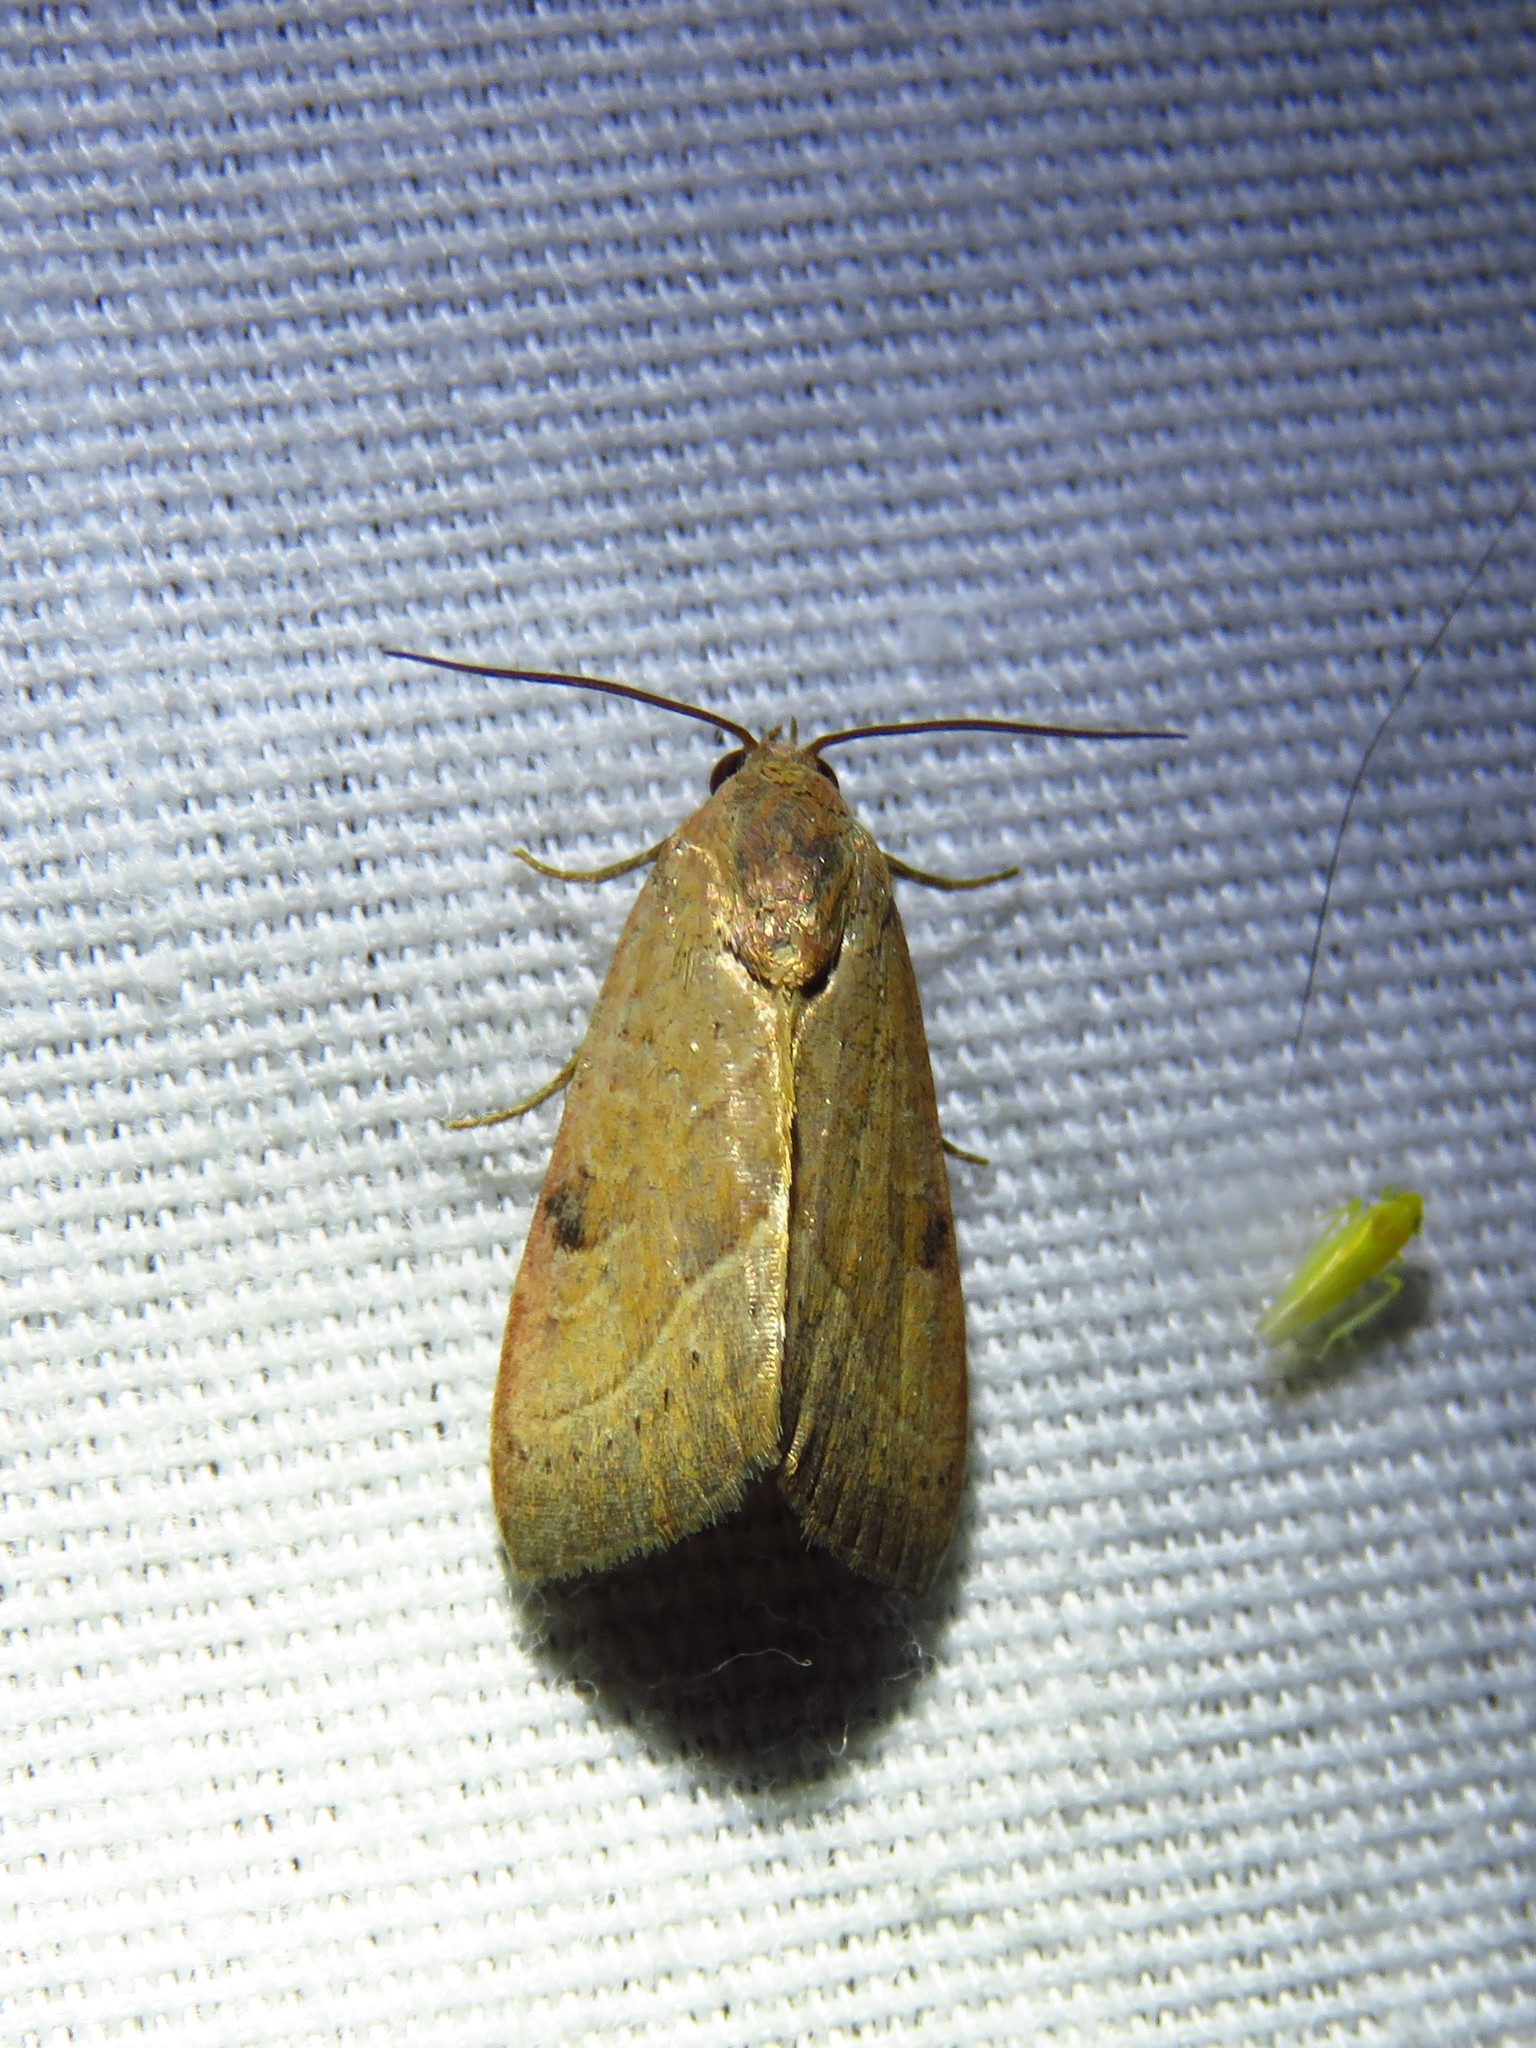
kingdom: Animalia
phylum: Arthropoda
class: Insecta
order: Lepidoptera
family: Noctuidae
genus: Galgula
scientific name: Galgula partita
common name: Wedgeling
